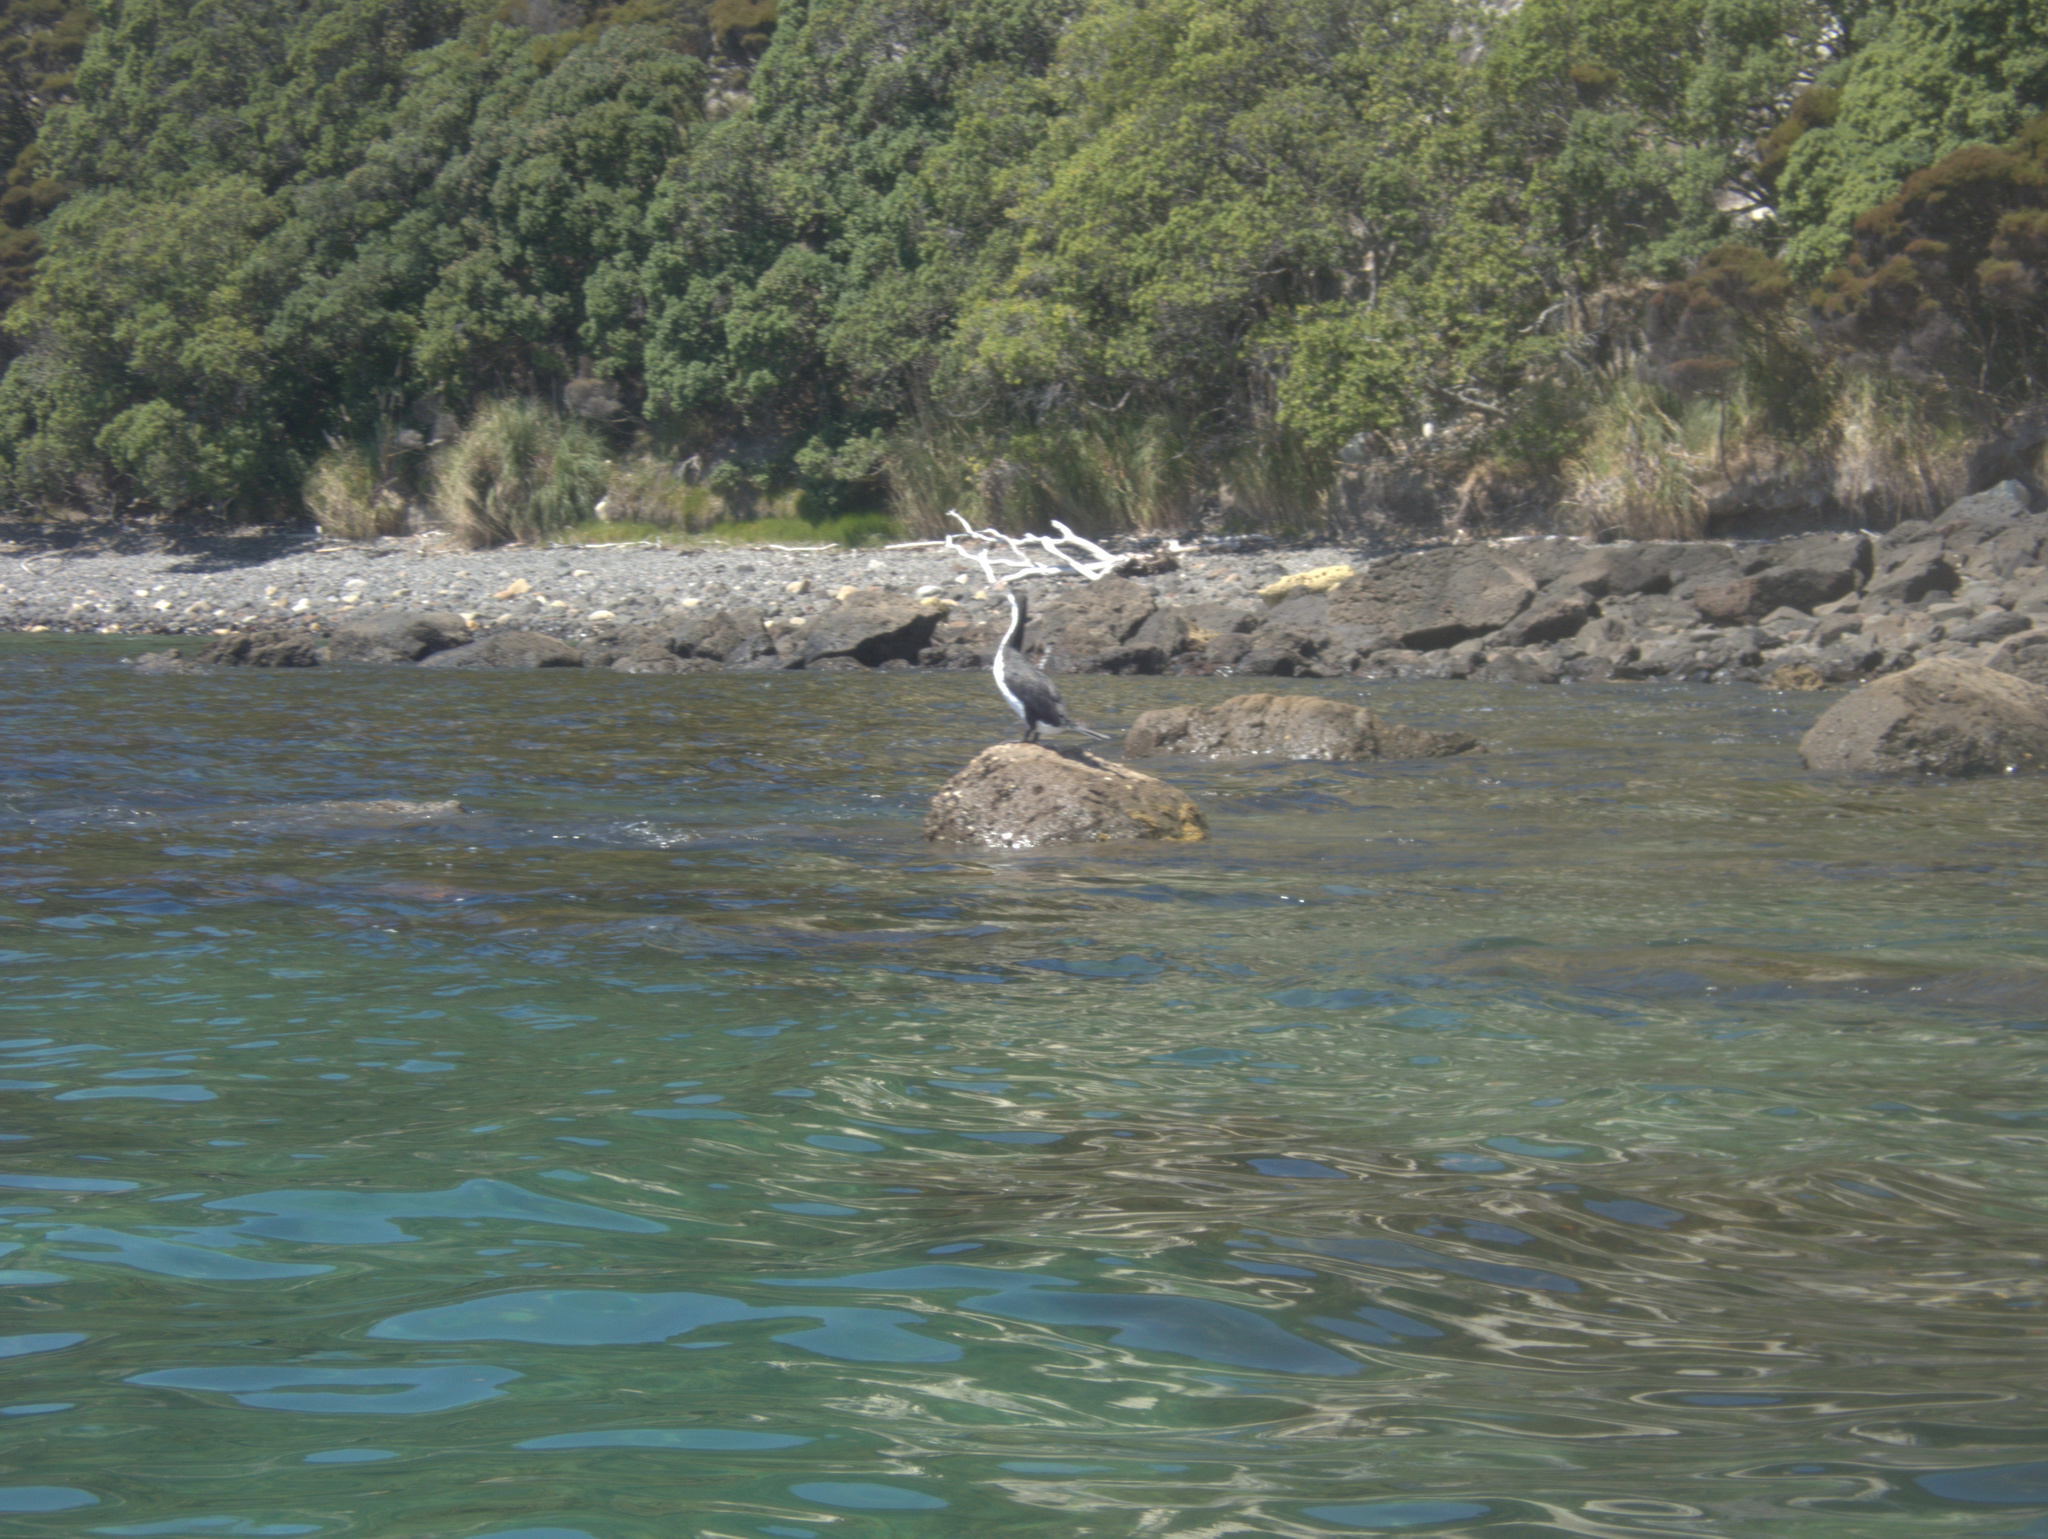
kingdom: Animalia
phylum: Chordata
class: Aves
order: Suliformes
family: Phalacrocoracidae
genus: Phalacrocorax
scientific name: Phalacrocorax varius
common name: Pied cormorant
